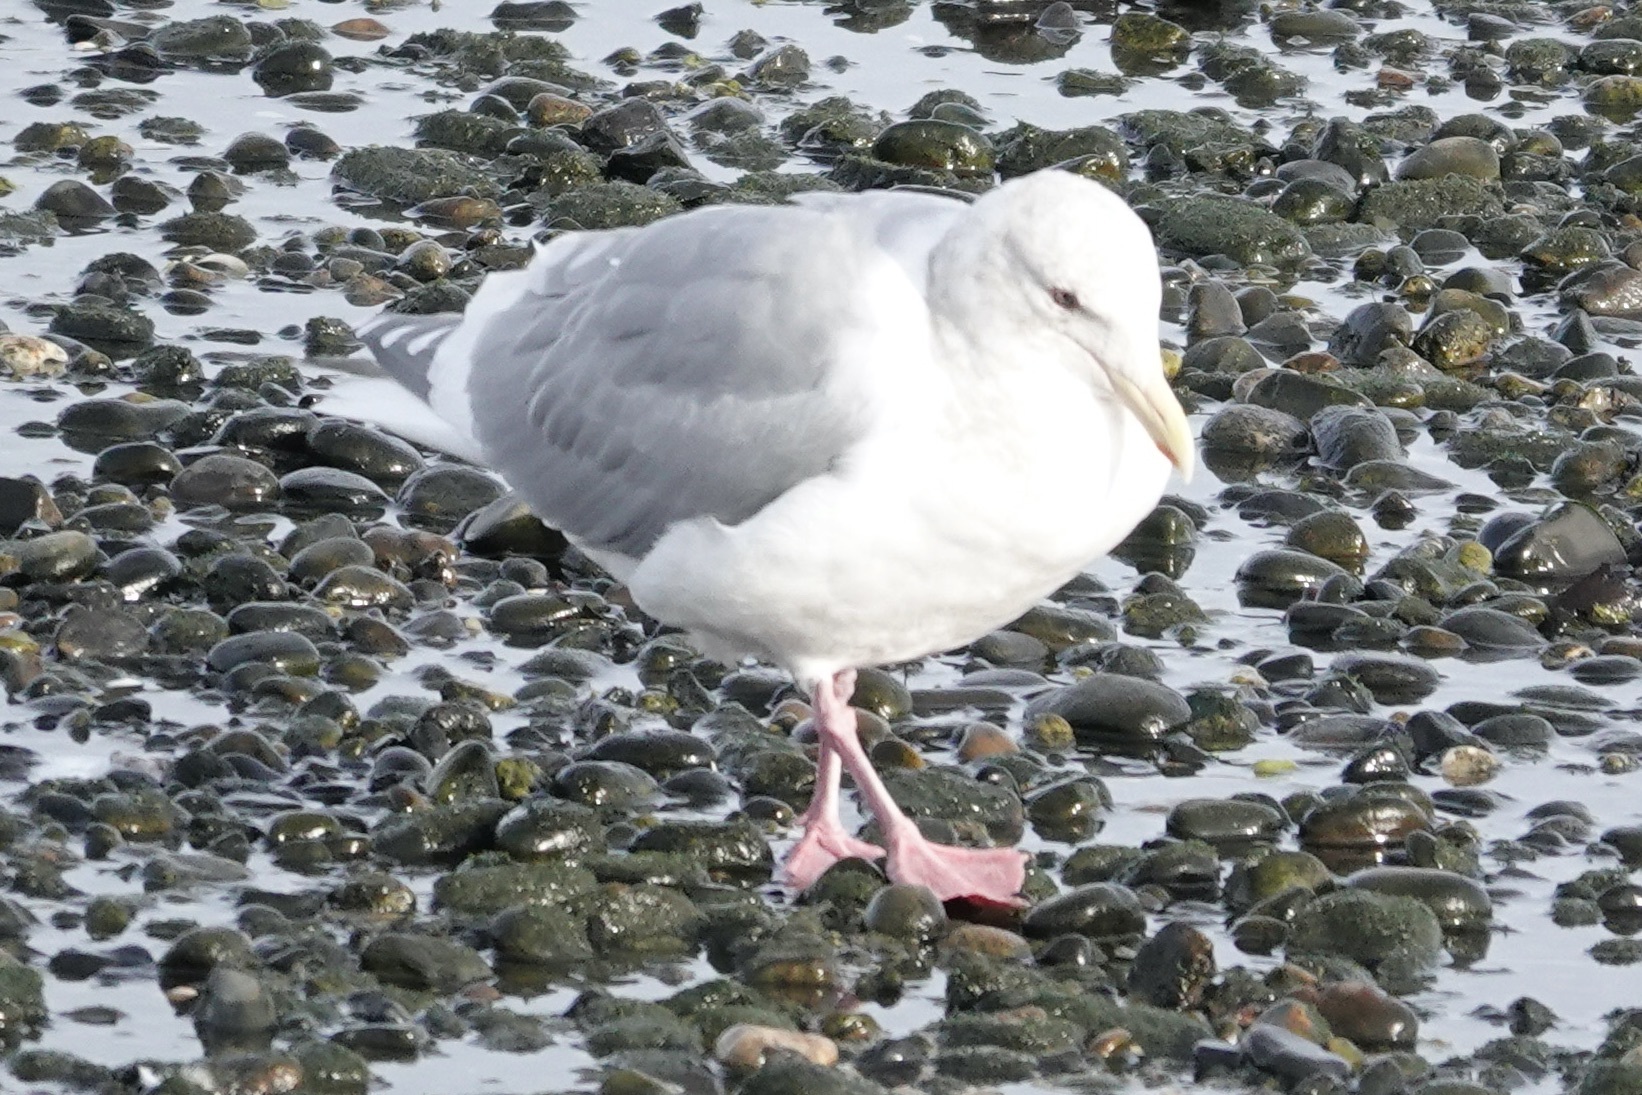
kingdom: Animalia
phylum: Chordata
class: Aves
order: Charadriiformes
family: Laridae
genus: Larus
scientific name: Larus glaucescens
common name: Glaucous-winged gull
